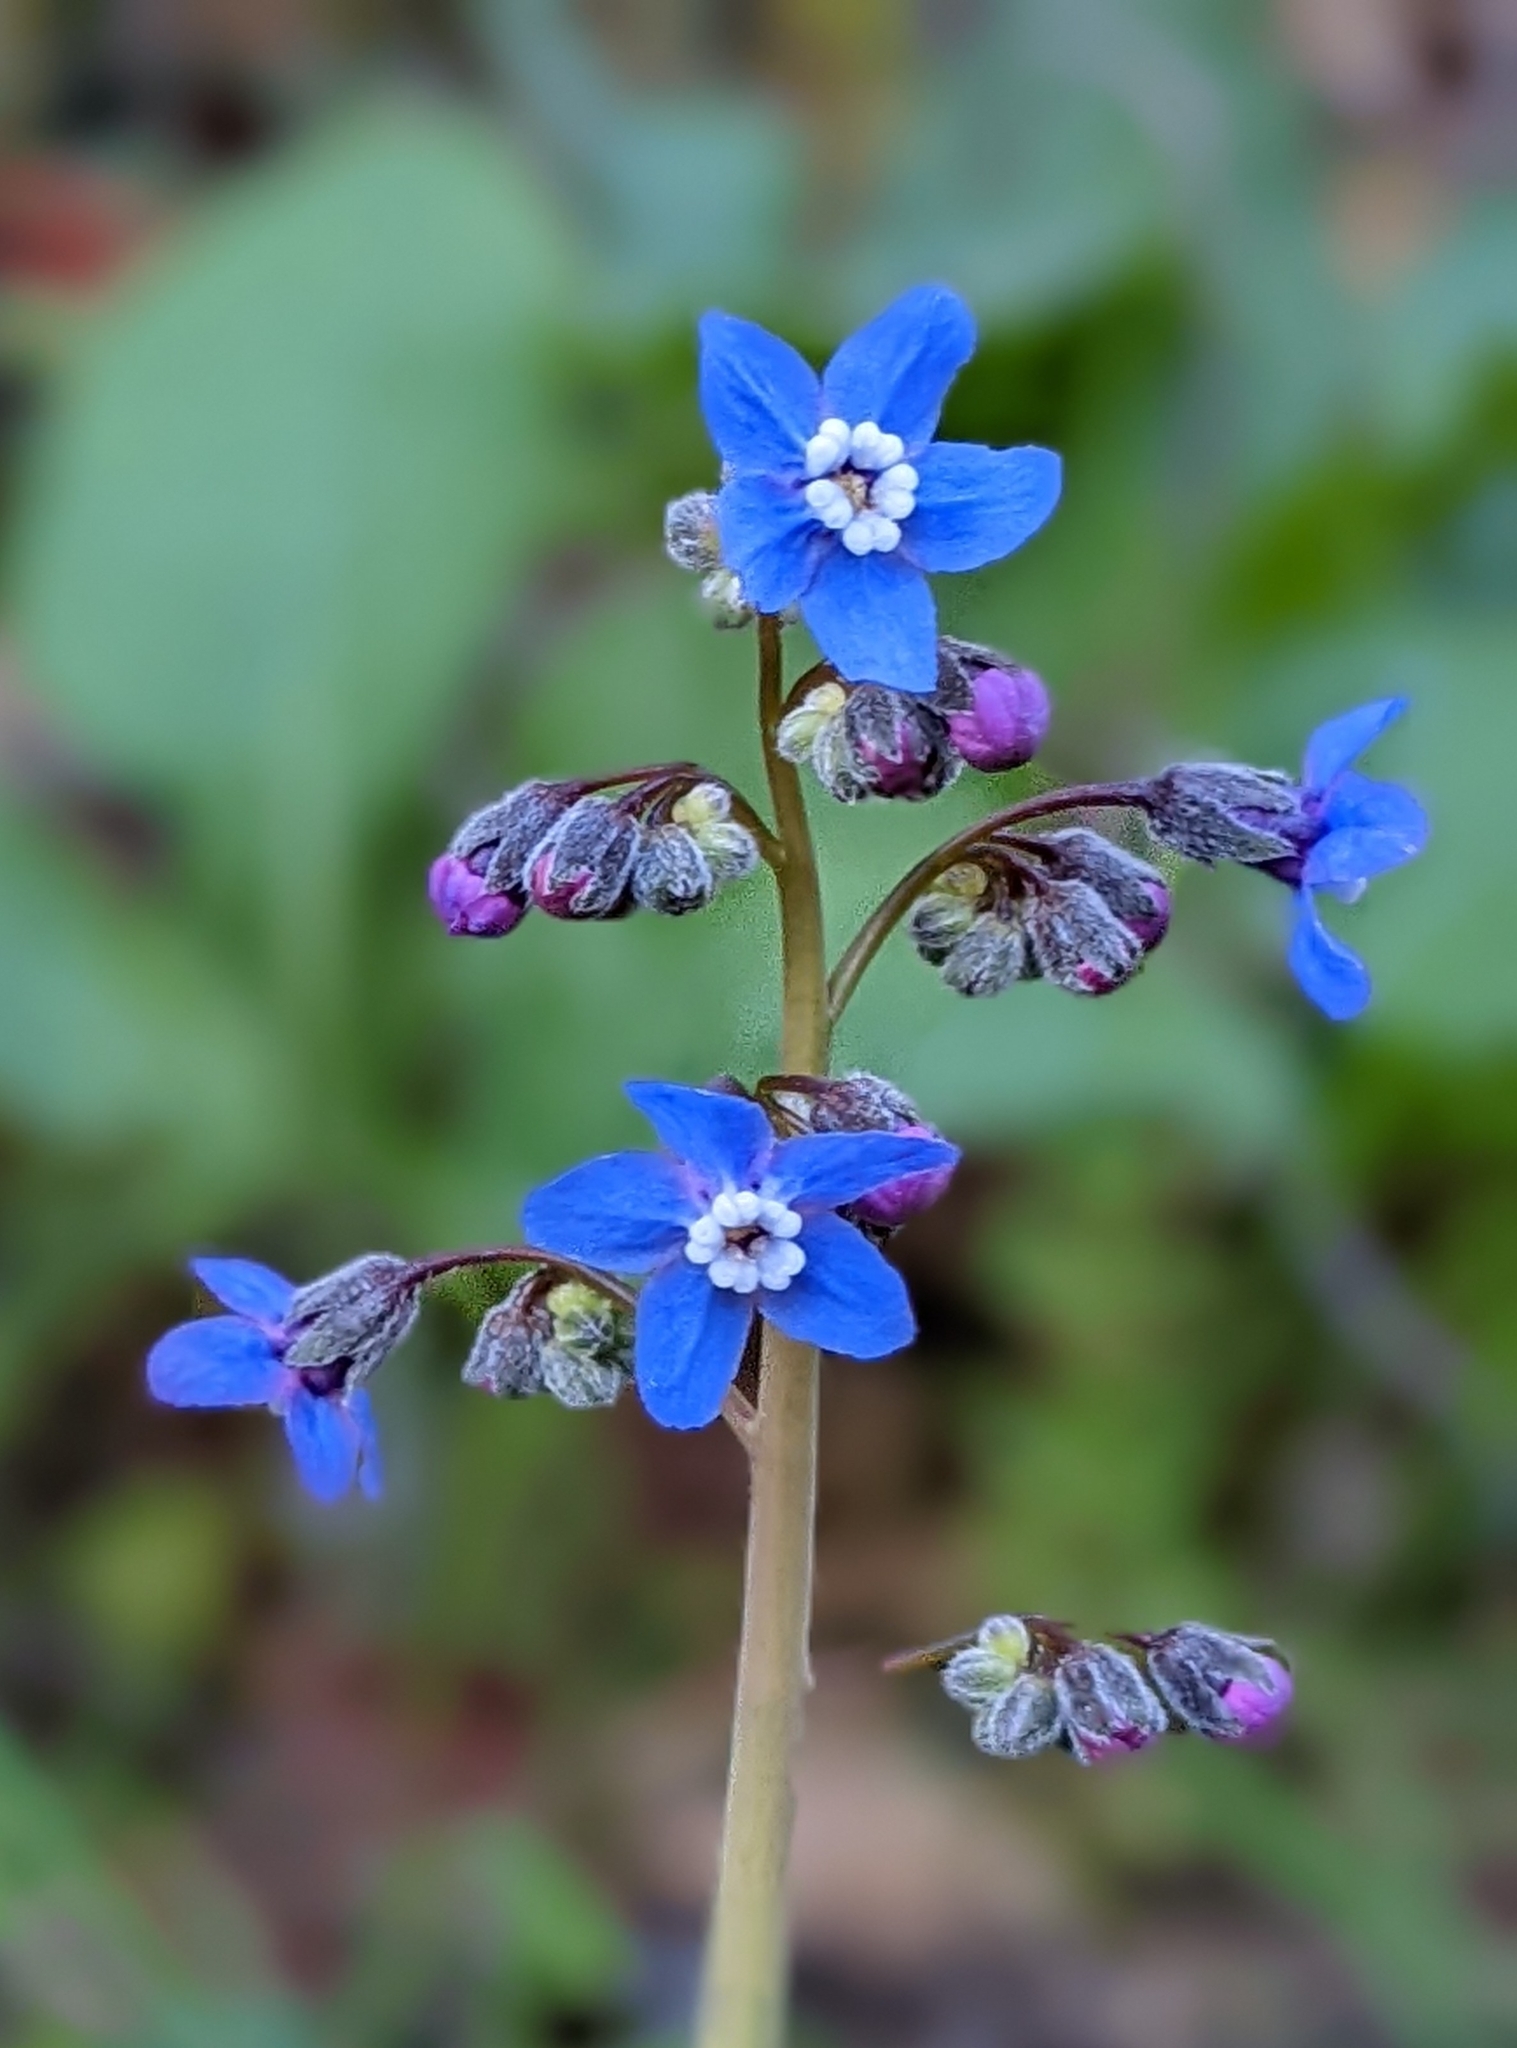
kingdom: Plantae
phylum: Tracheophyta
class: Magnoliopsida
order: Boraginales
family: Boraginaceae
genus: Adelinia
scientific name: Adelinia grande
